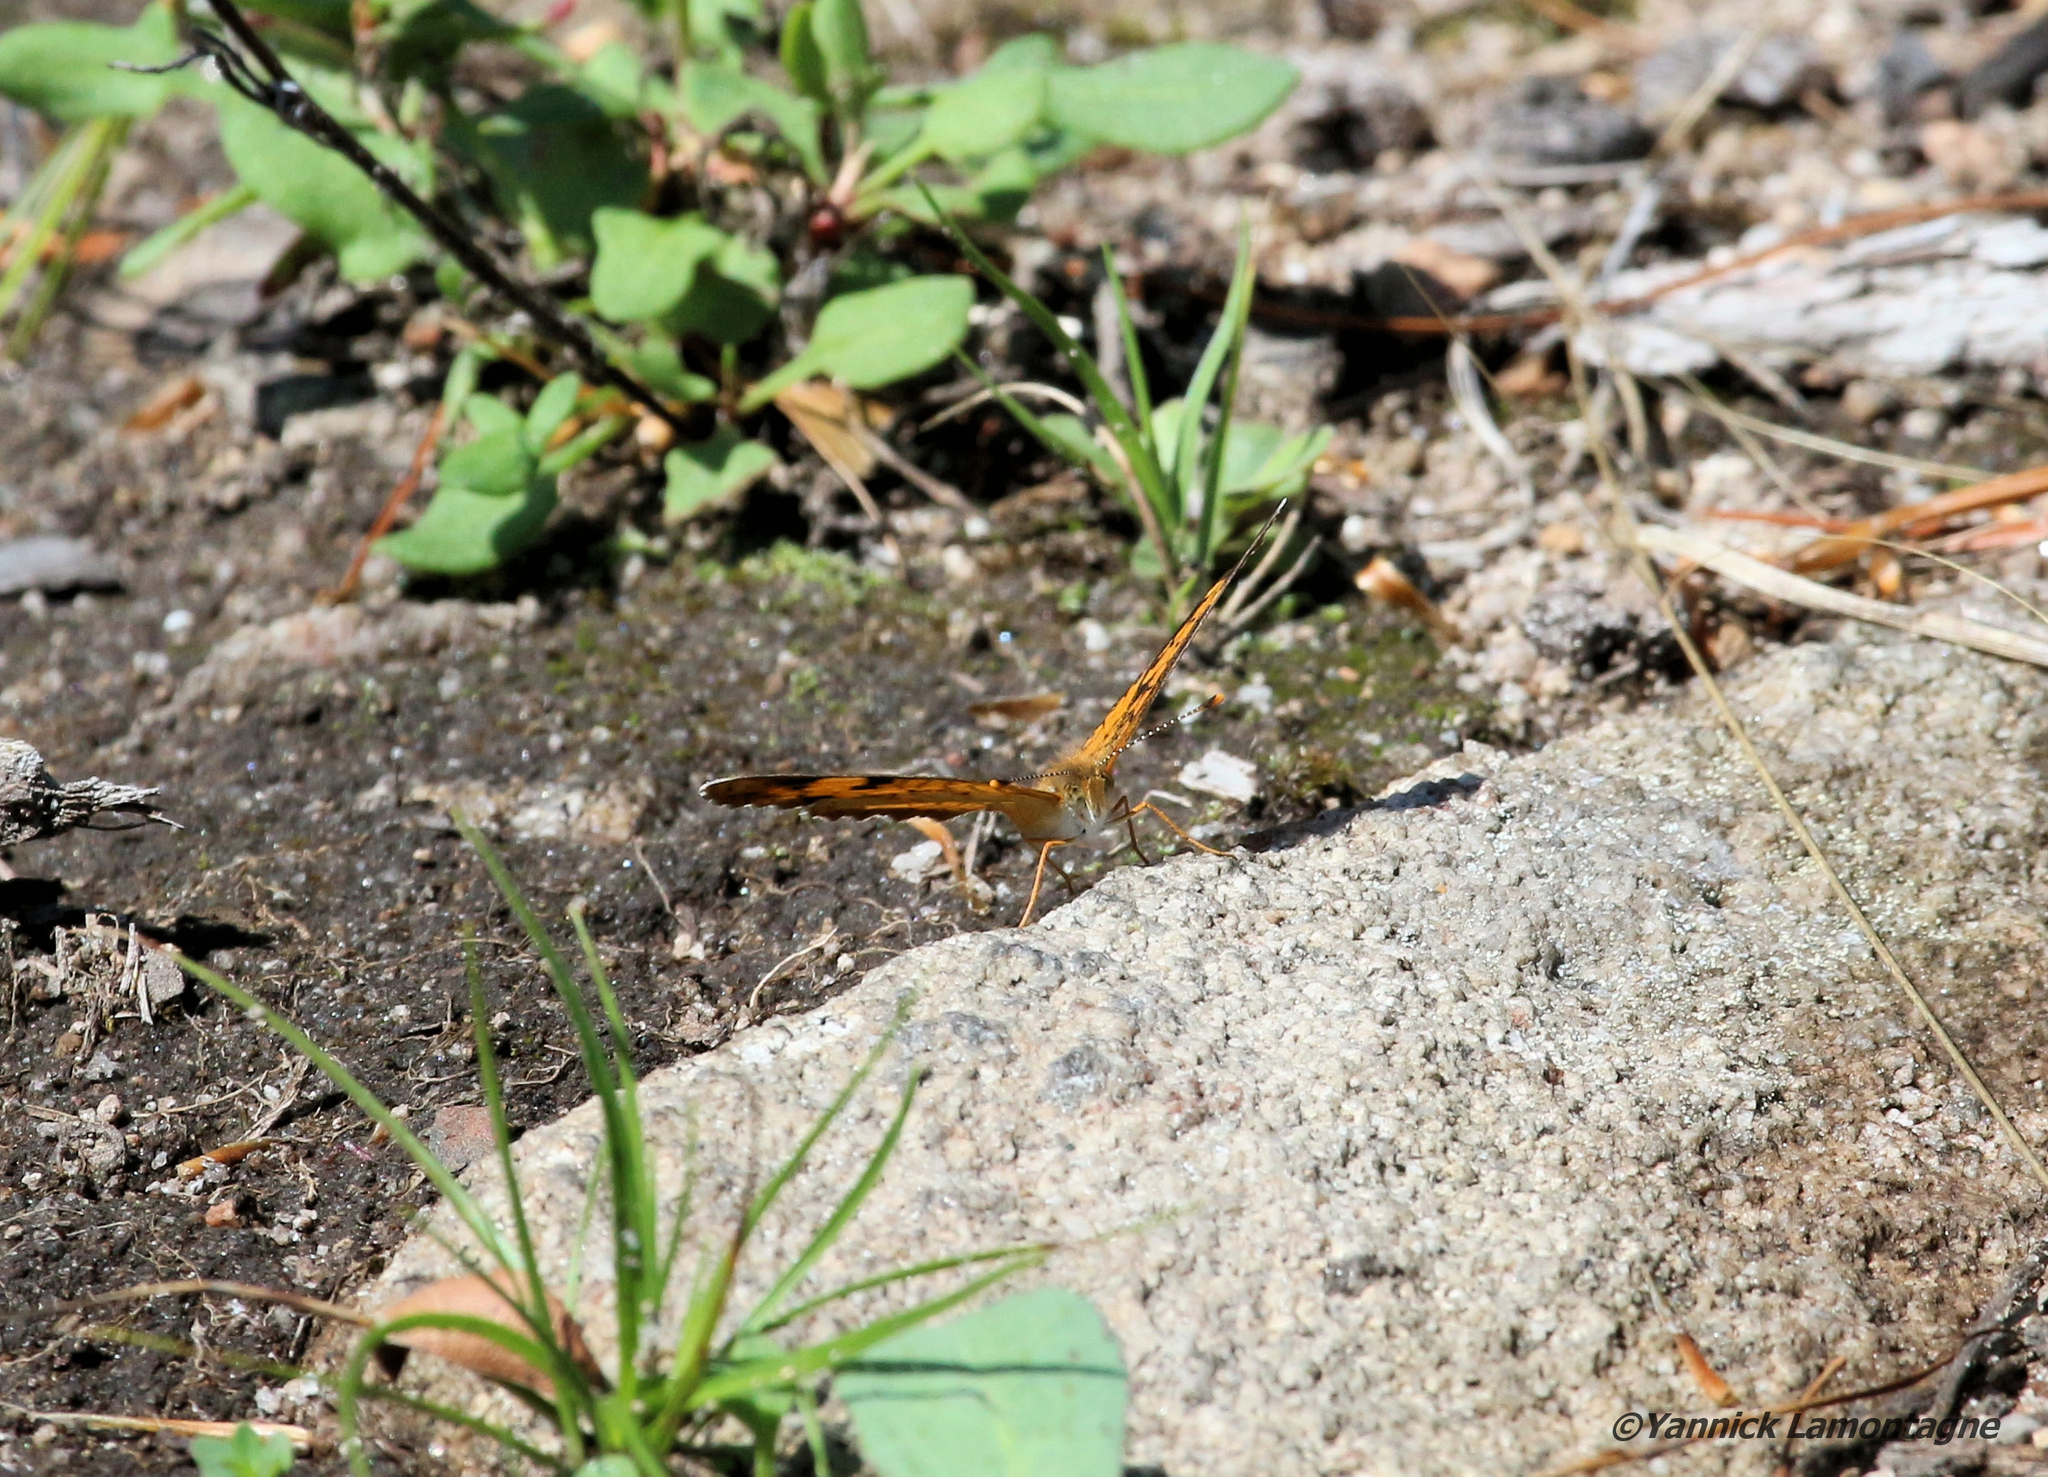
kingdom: Animalia
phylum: Arthropoda
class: Insecta
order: Lepidoptera
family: Nymphalidae
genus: Phyciodes
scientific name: Phyciodes tharos
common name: Pearl crescent
